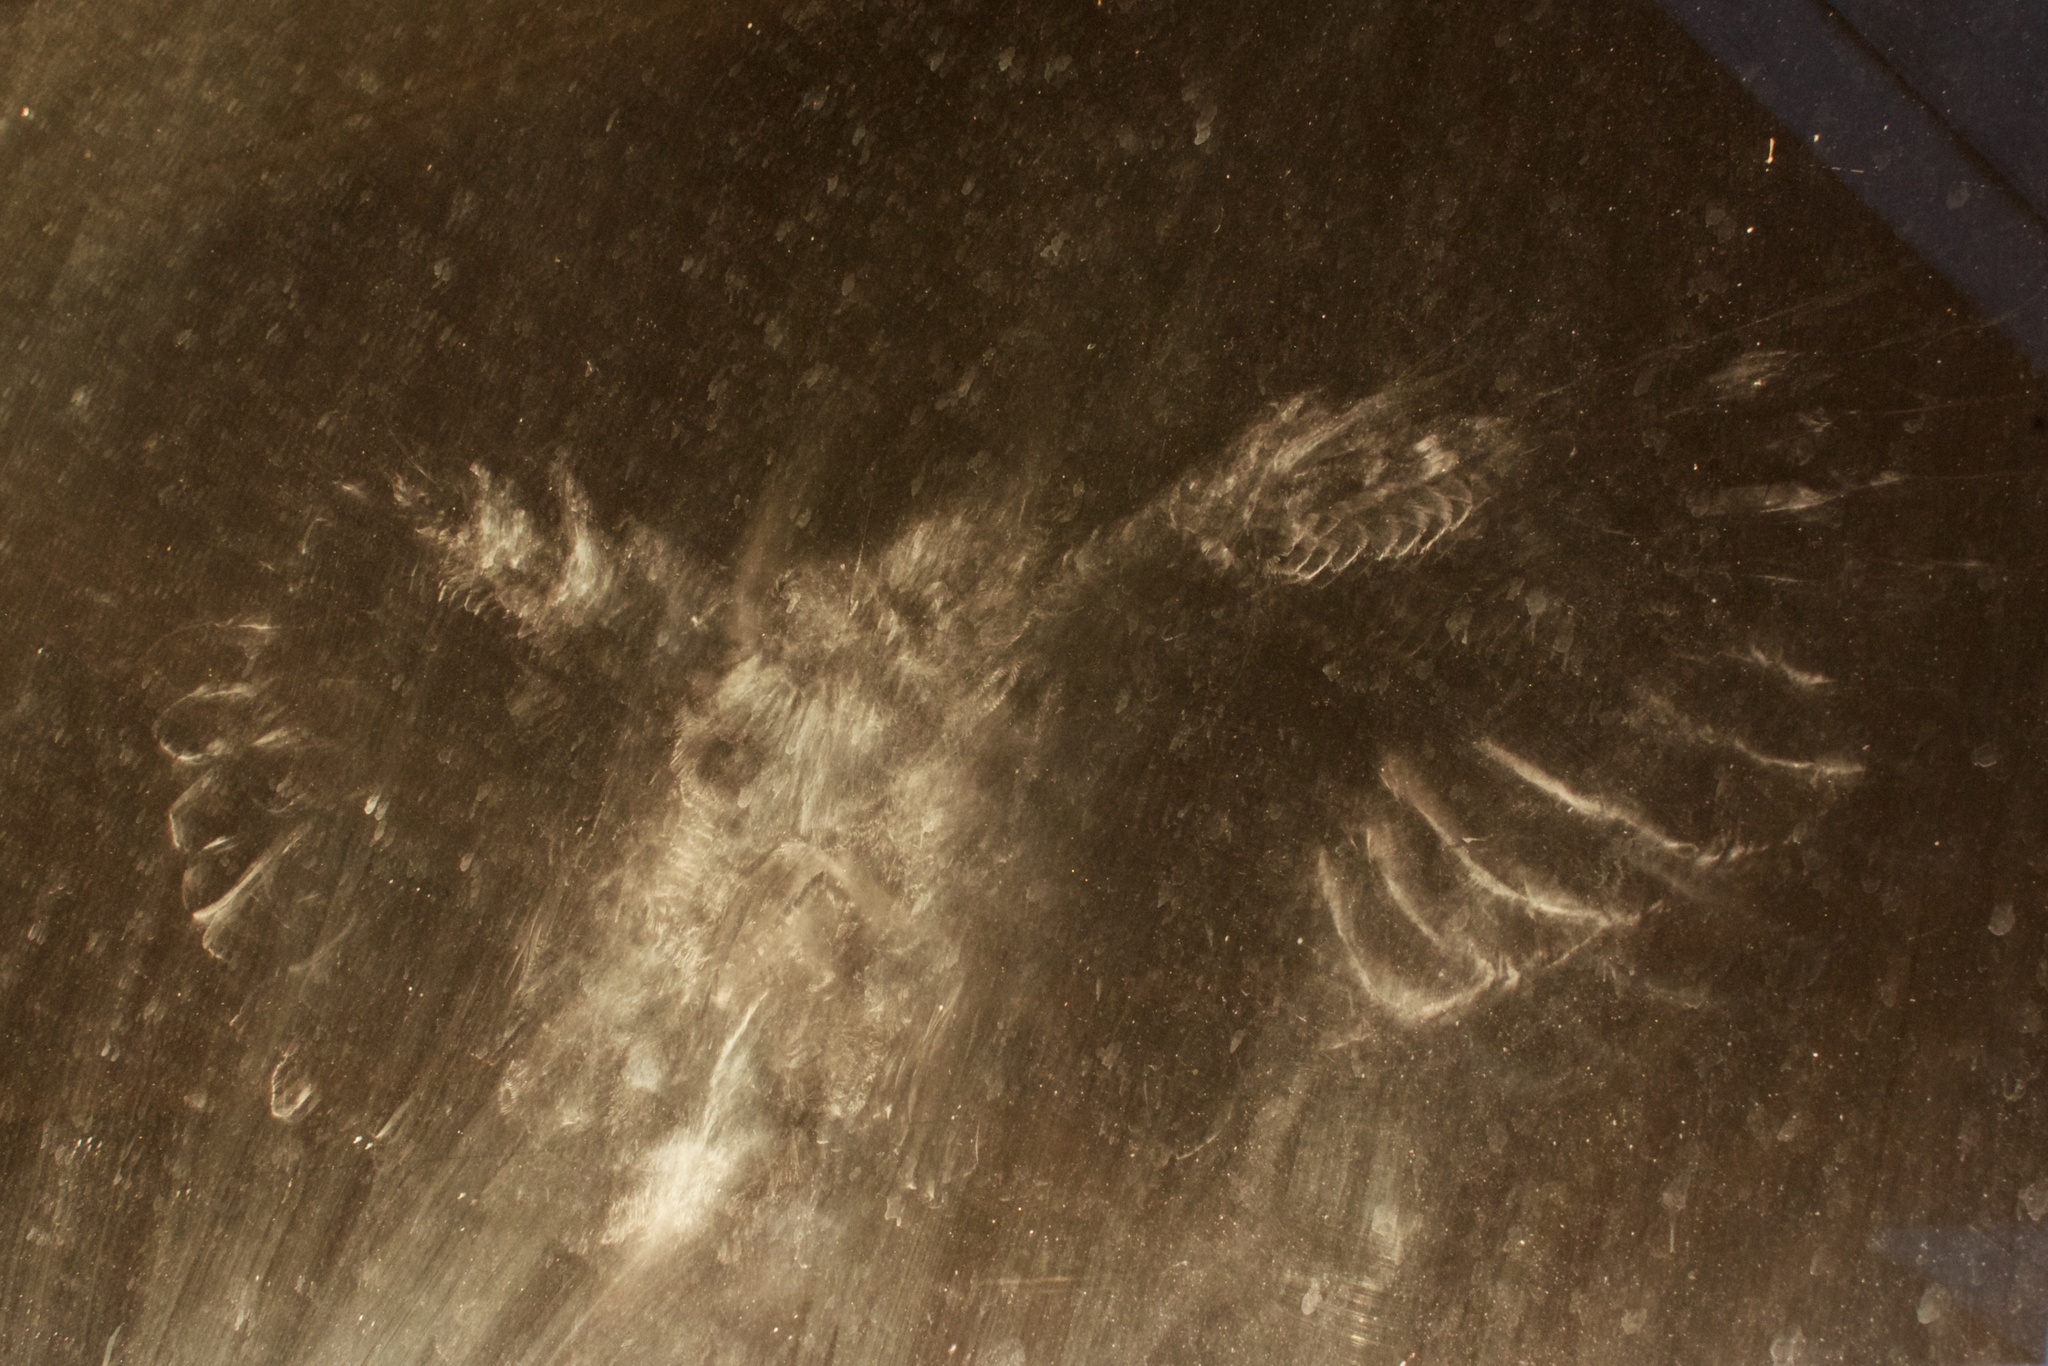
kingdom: Animalia
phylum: Chordata
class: Aves
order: Columbiformes
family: Columbidae
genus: Hemiphaga
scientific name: Hemiphaga novaeseelandiae
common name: New zealand pigeon
